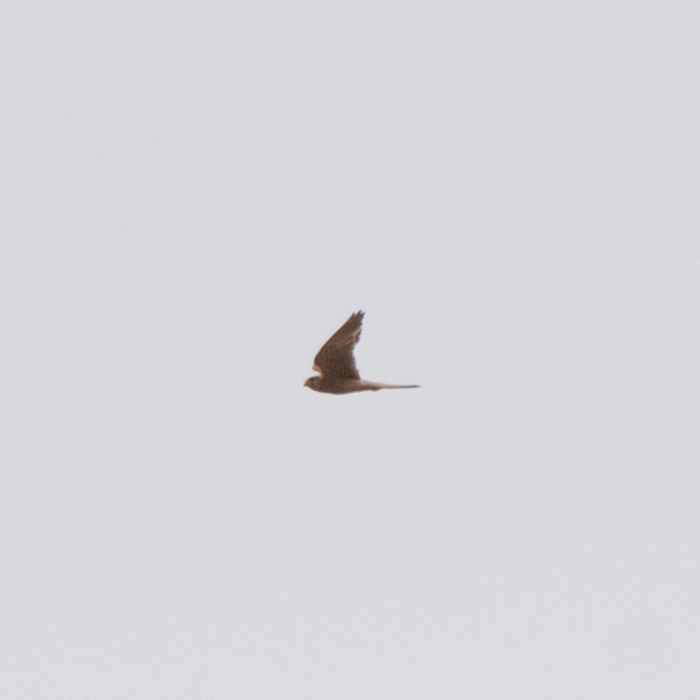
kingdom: Animalia
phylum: Chordata
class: Aves
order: Falconiformes
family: Falconidae
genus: Falco
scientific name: Falco tinnunculus
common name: Common kestrel
